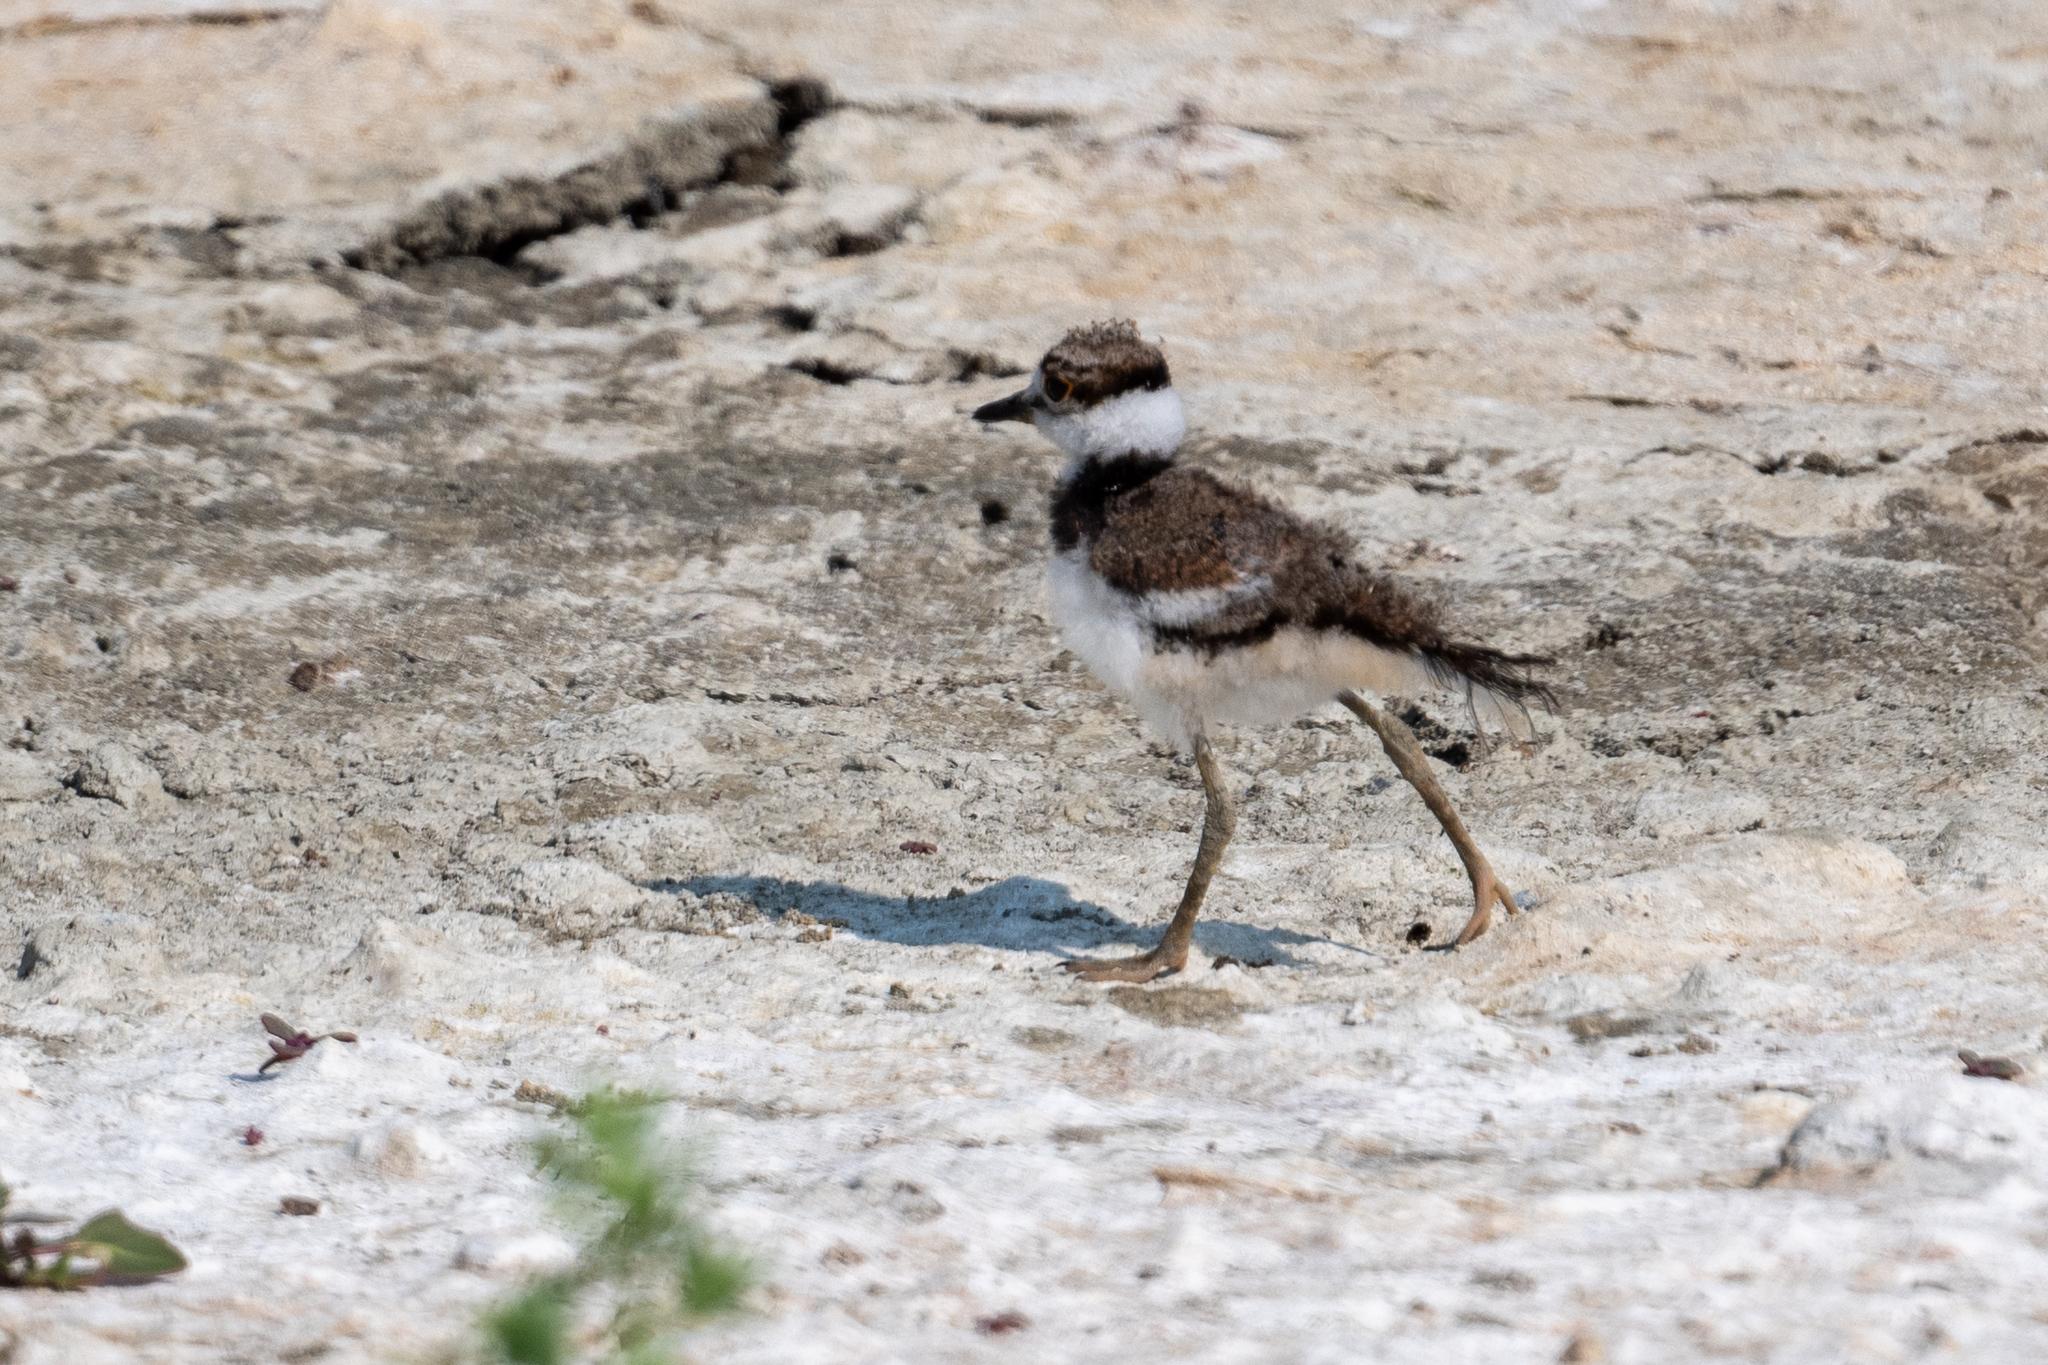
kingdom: Animalia
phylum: Chordata
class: Aves
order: Charadriiformes
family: Charadriidae
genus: Charadrius
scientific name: Charadrius vociferus
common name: Killdeer
